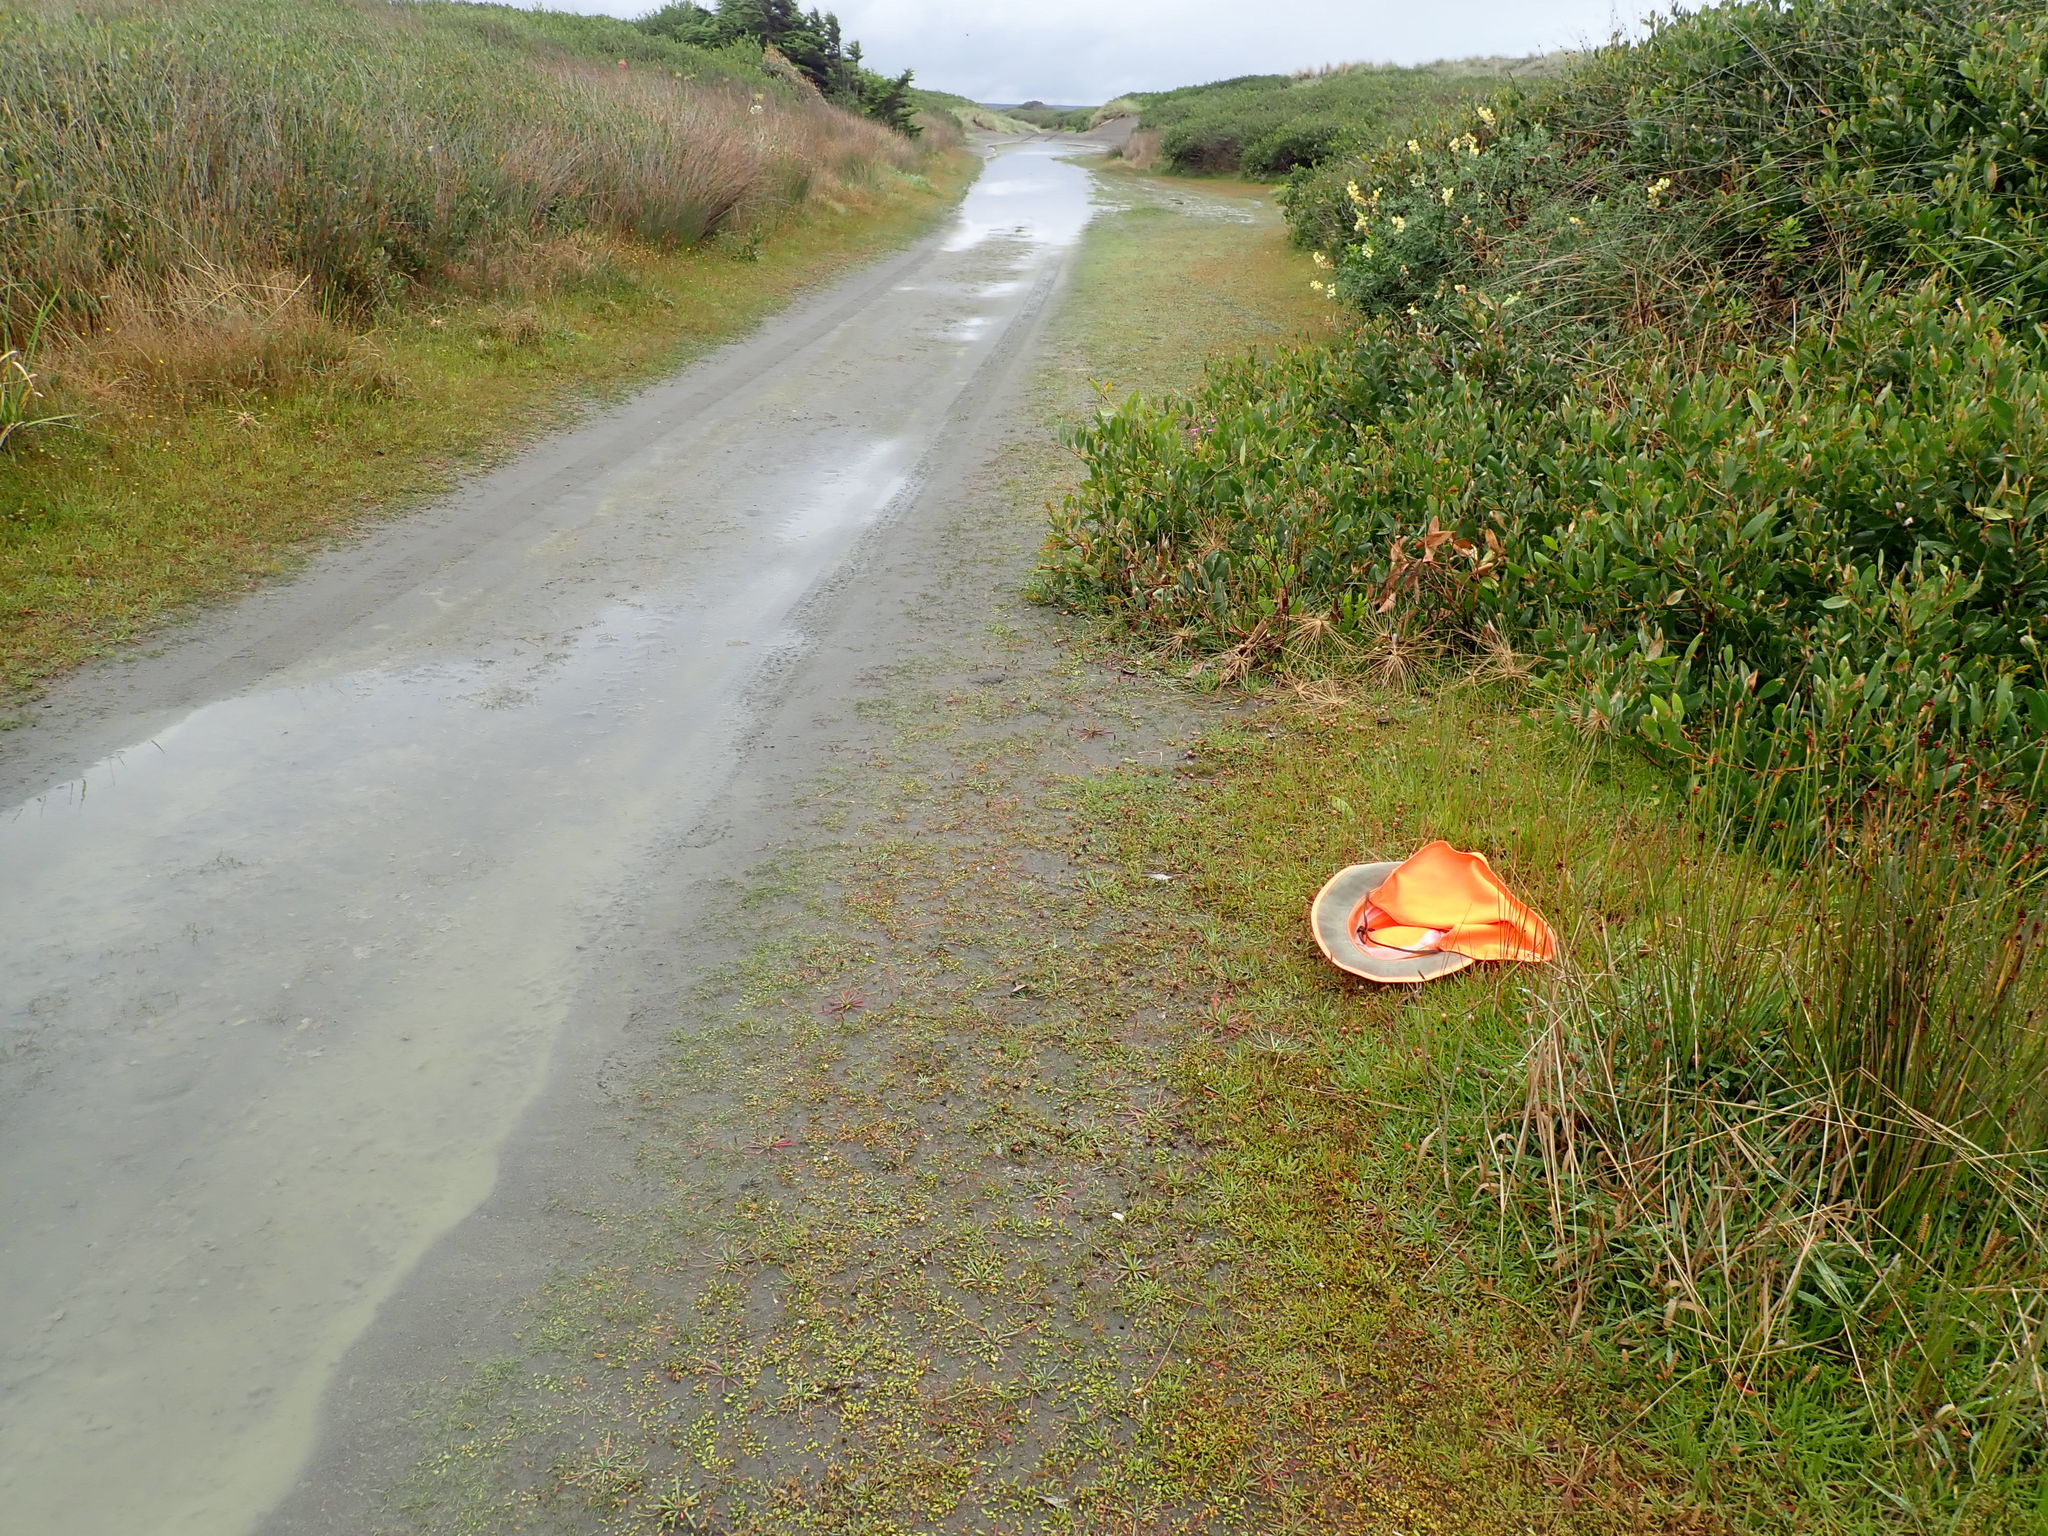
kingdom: Plantae
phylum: Tracheophyta
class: Magnoliopsida
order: Lamiales
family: Plantaginaceae
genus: Plantago
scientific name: Plantago coronopus
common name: Buck's-horn plantain
